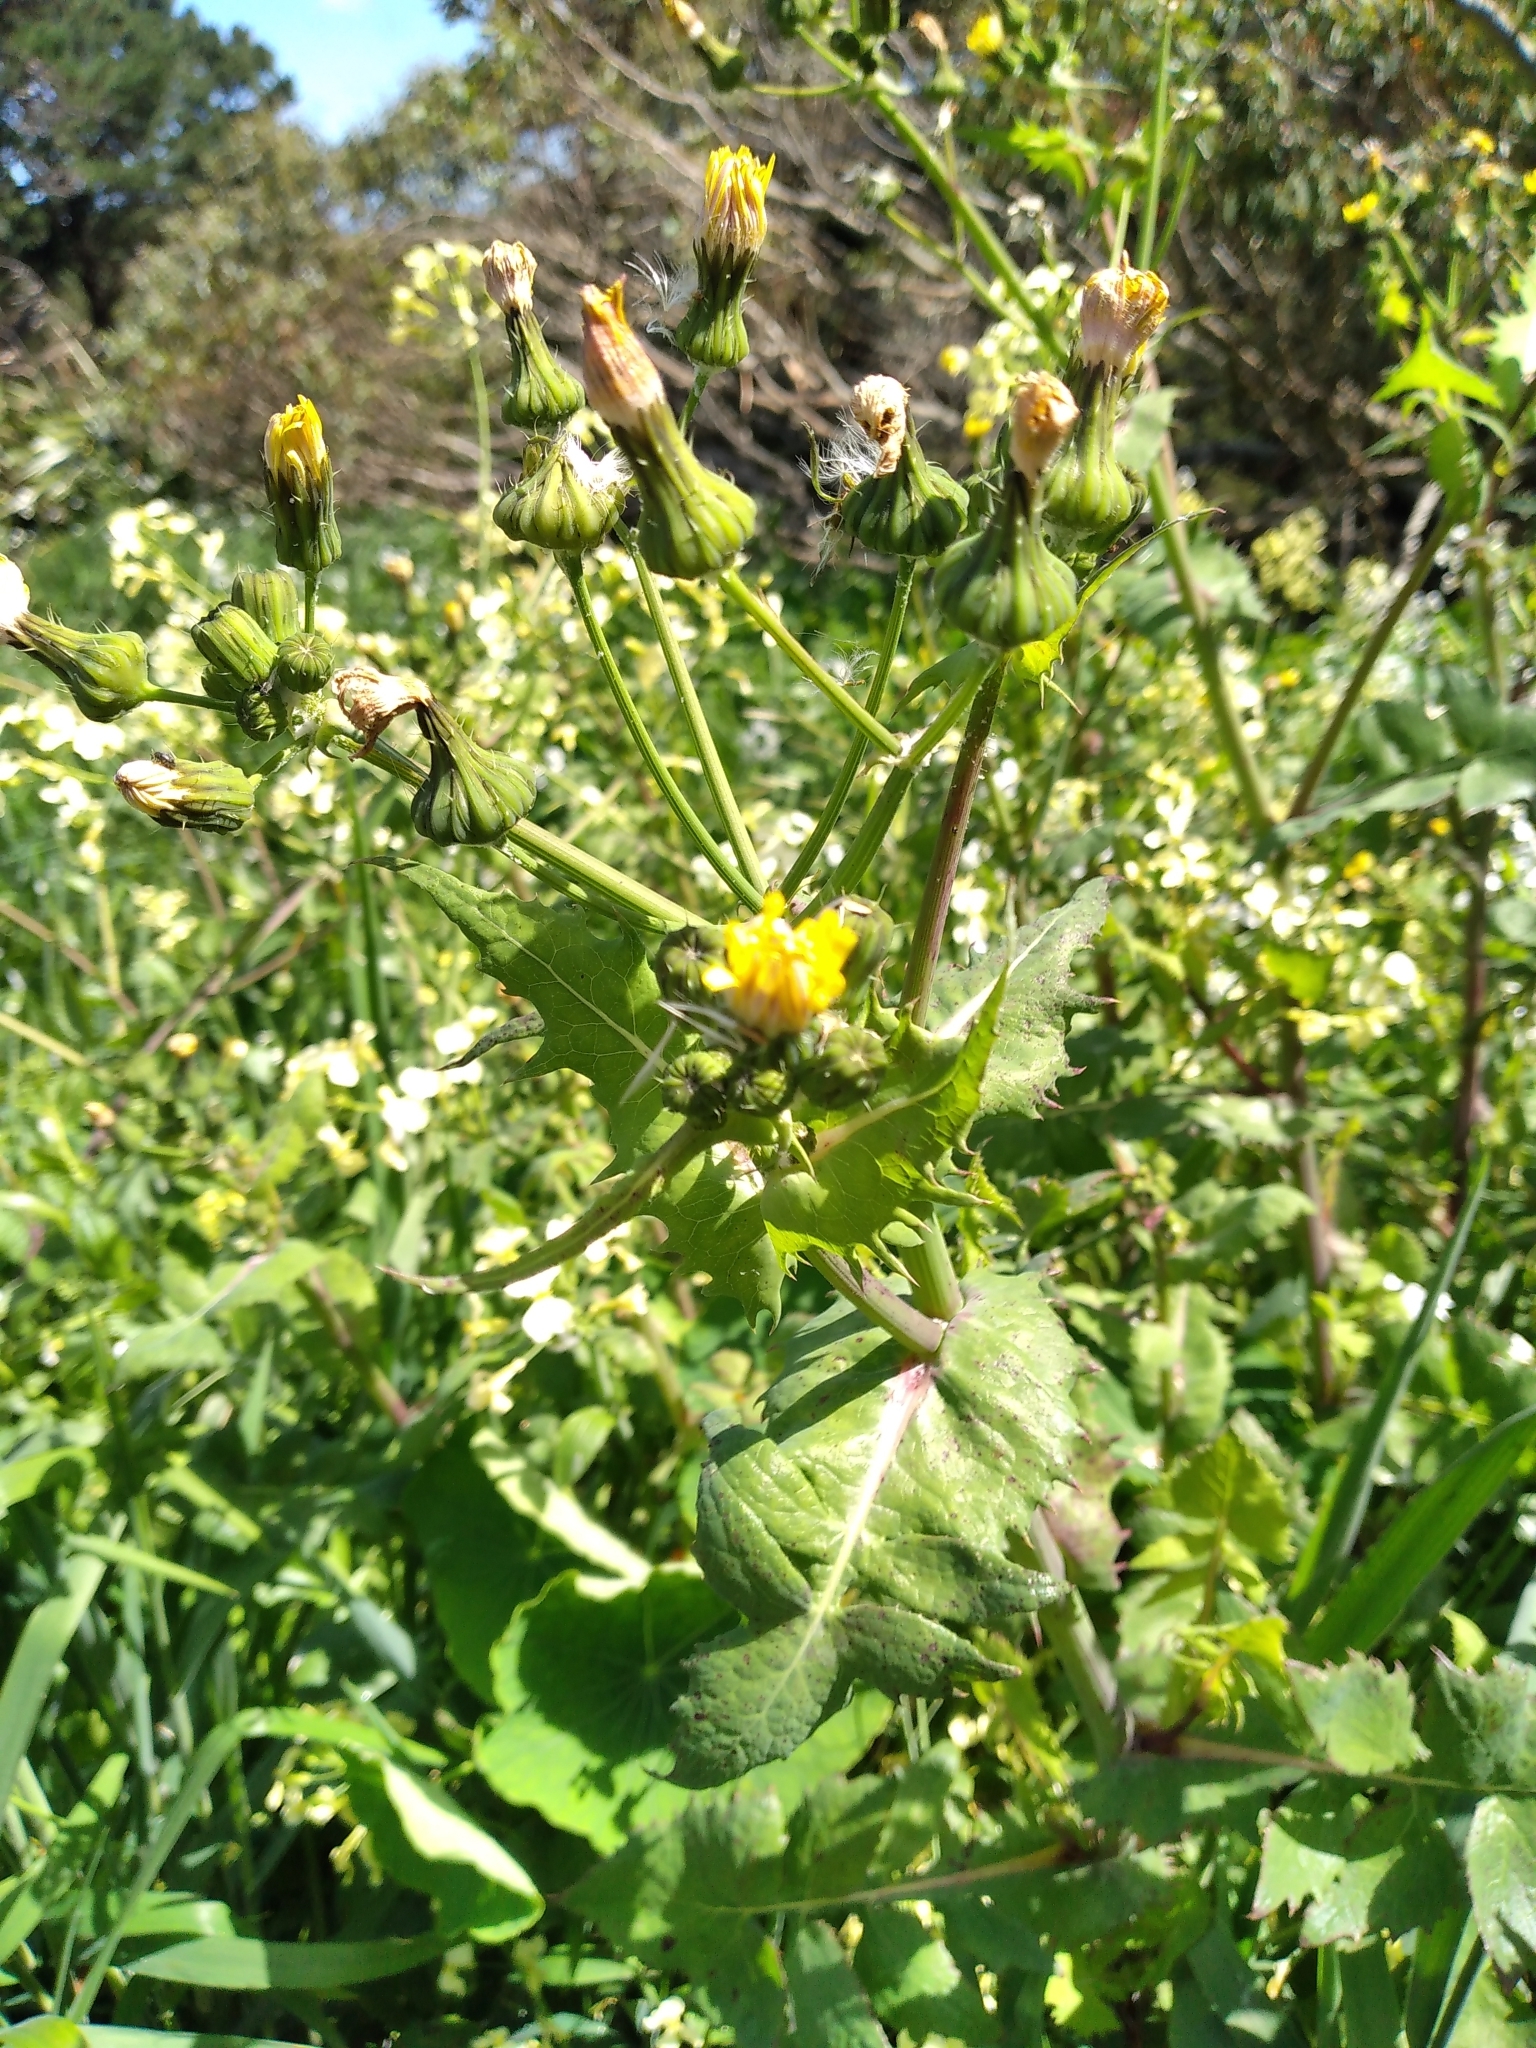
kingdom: Plantae
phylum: Tracheophyta
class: Magnoliopsida
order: Asterales
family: Asteraceae
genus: Sonchus
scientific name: Sonchus oleraceus
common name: Common sowthistle
